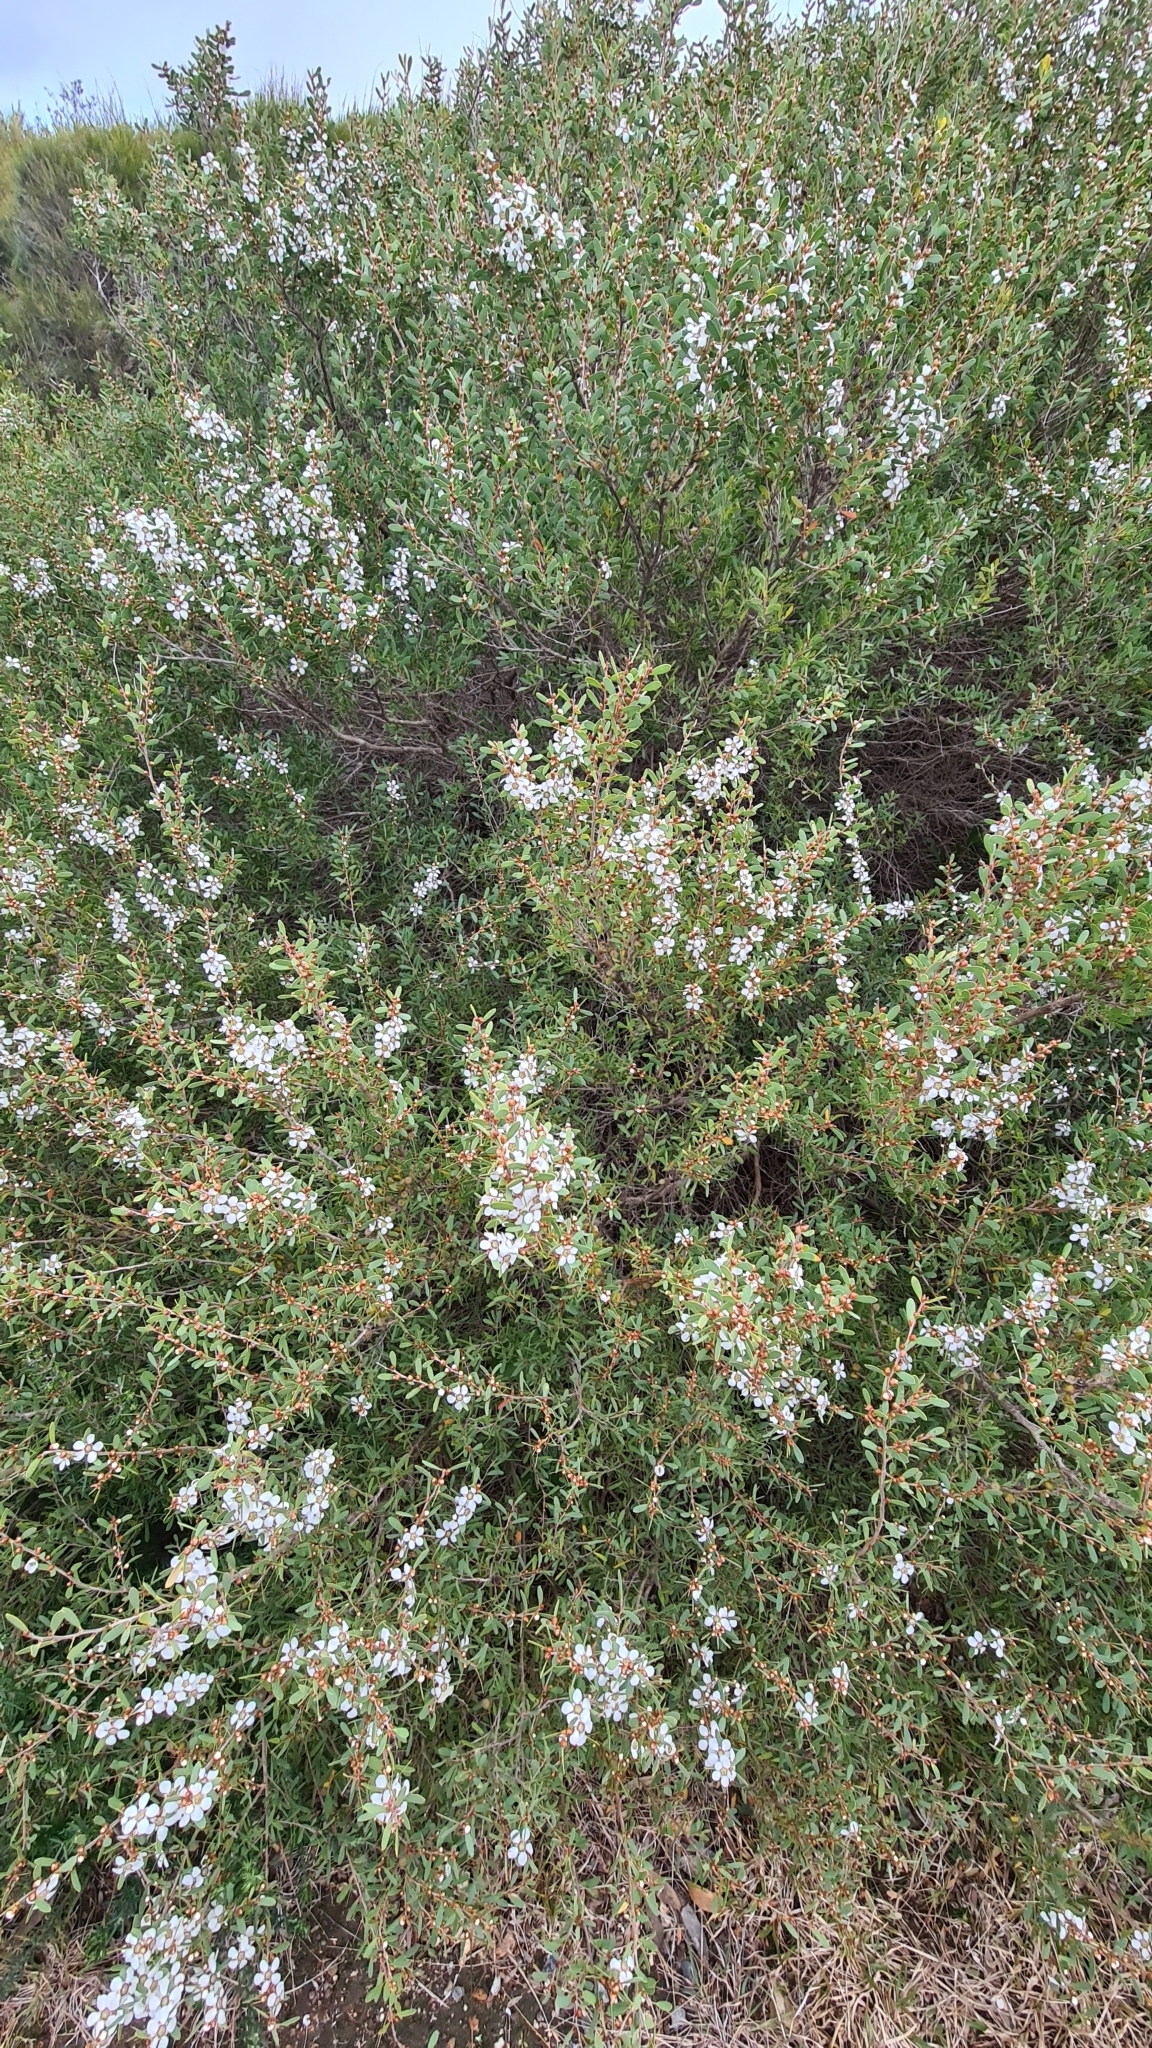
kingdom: Plantae
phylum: Tracheophyta
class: Magnoliopsida
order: Myrtales
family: Myrtaceae
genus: Leptospermum
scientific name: Leptospermum laevigatum
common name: Australian teatree
